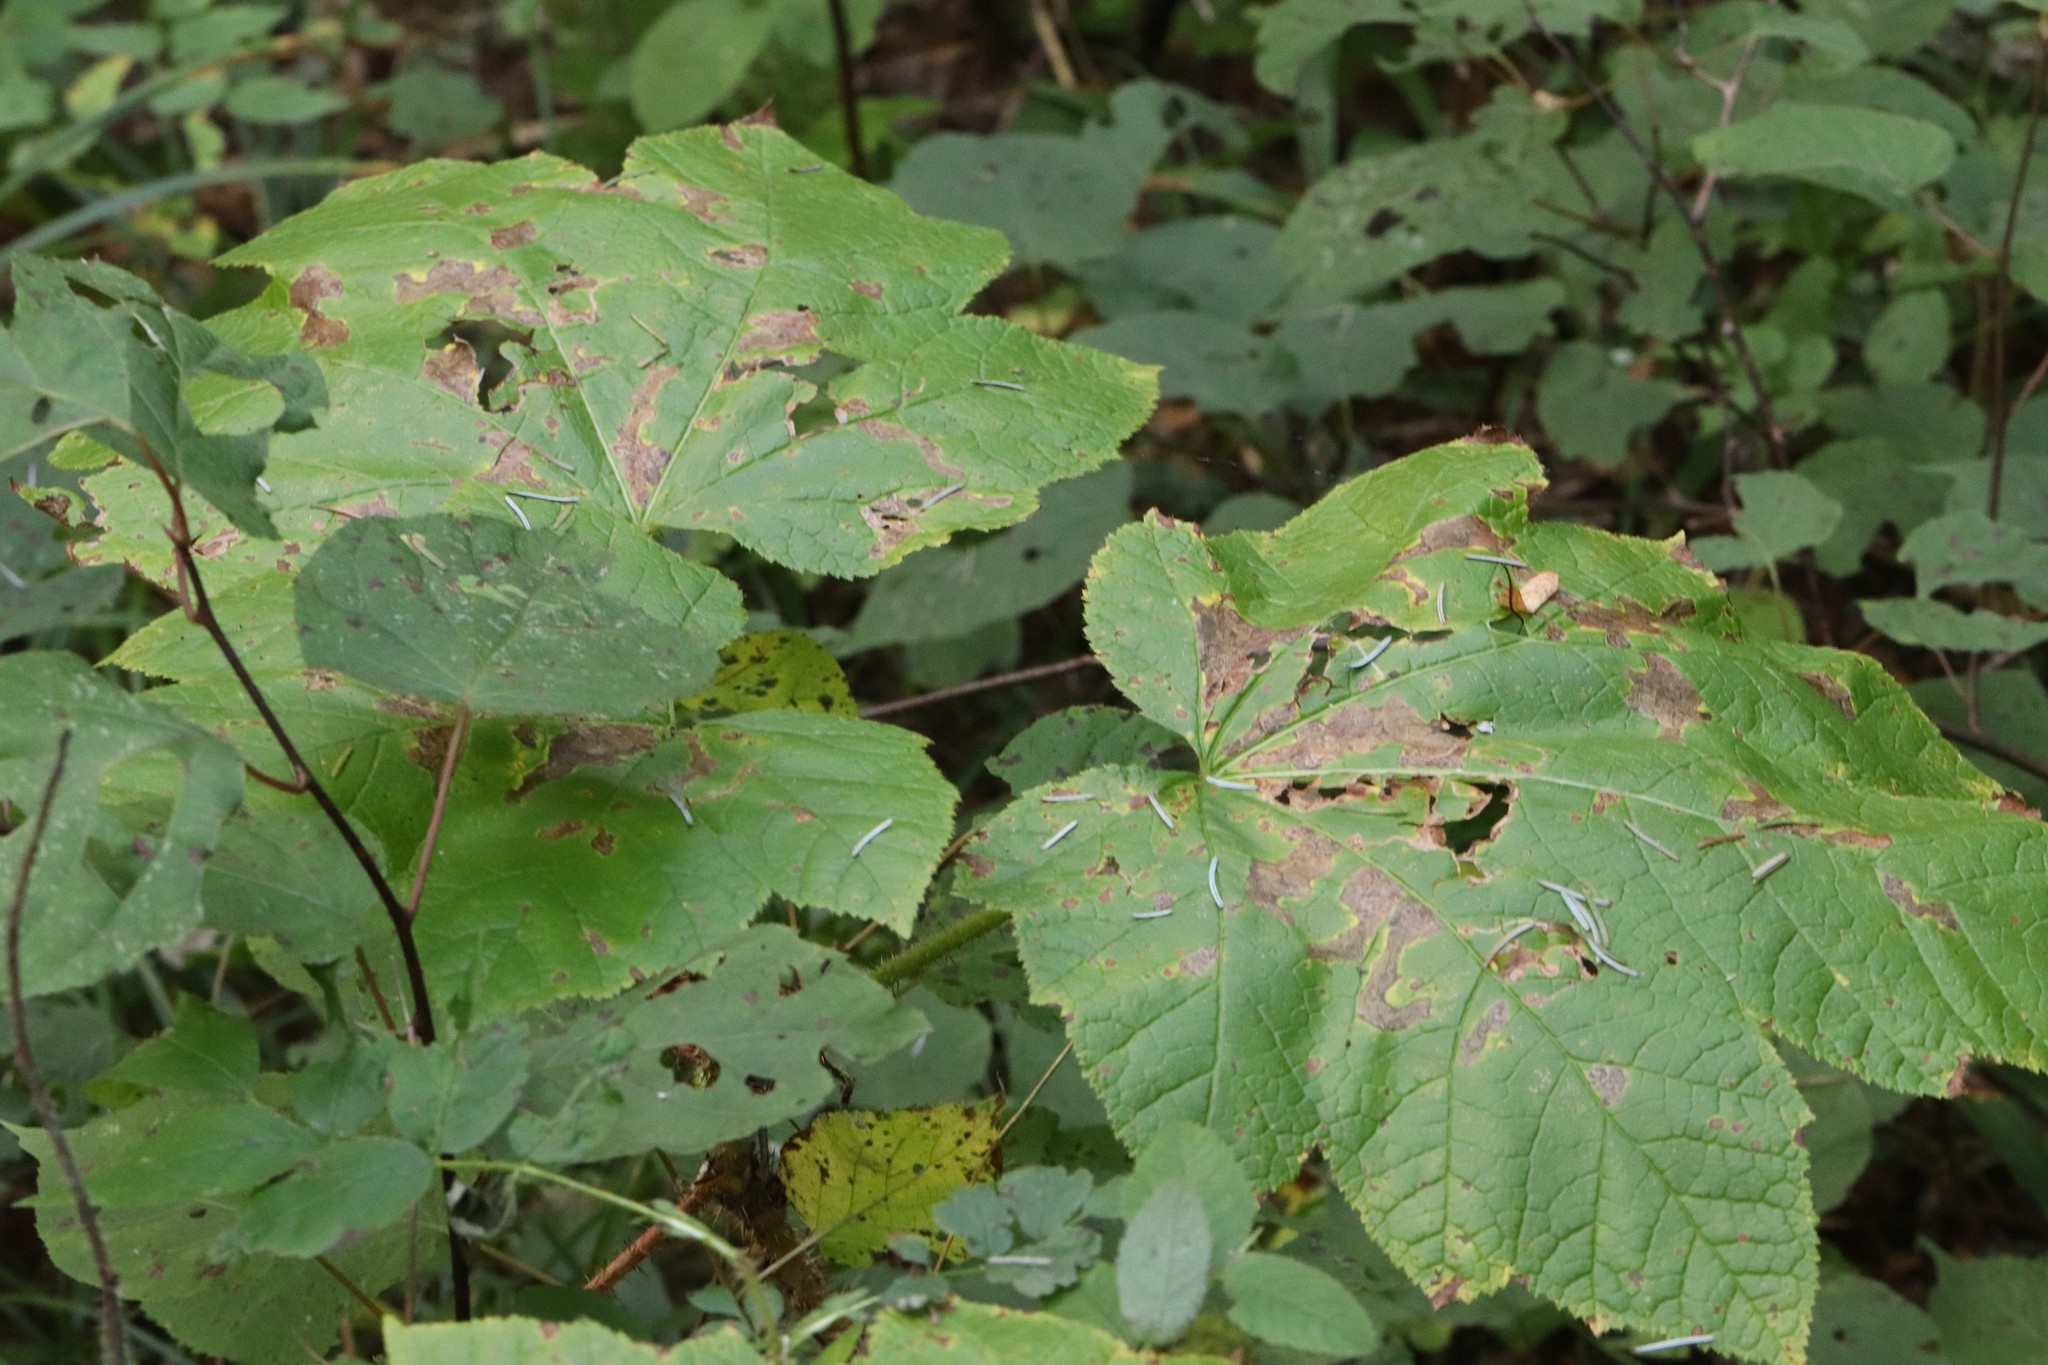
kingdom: Plantae
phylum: Tracheophyta
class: Magnoliopsida
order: Apiales
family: Araliaceae
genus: Oplopanax
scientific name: Oplopanax elatus
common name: Japanese devil's-club
